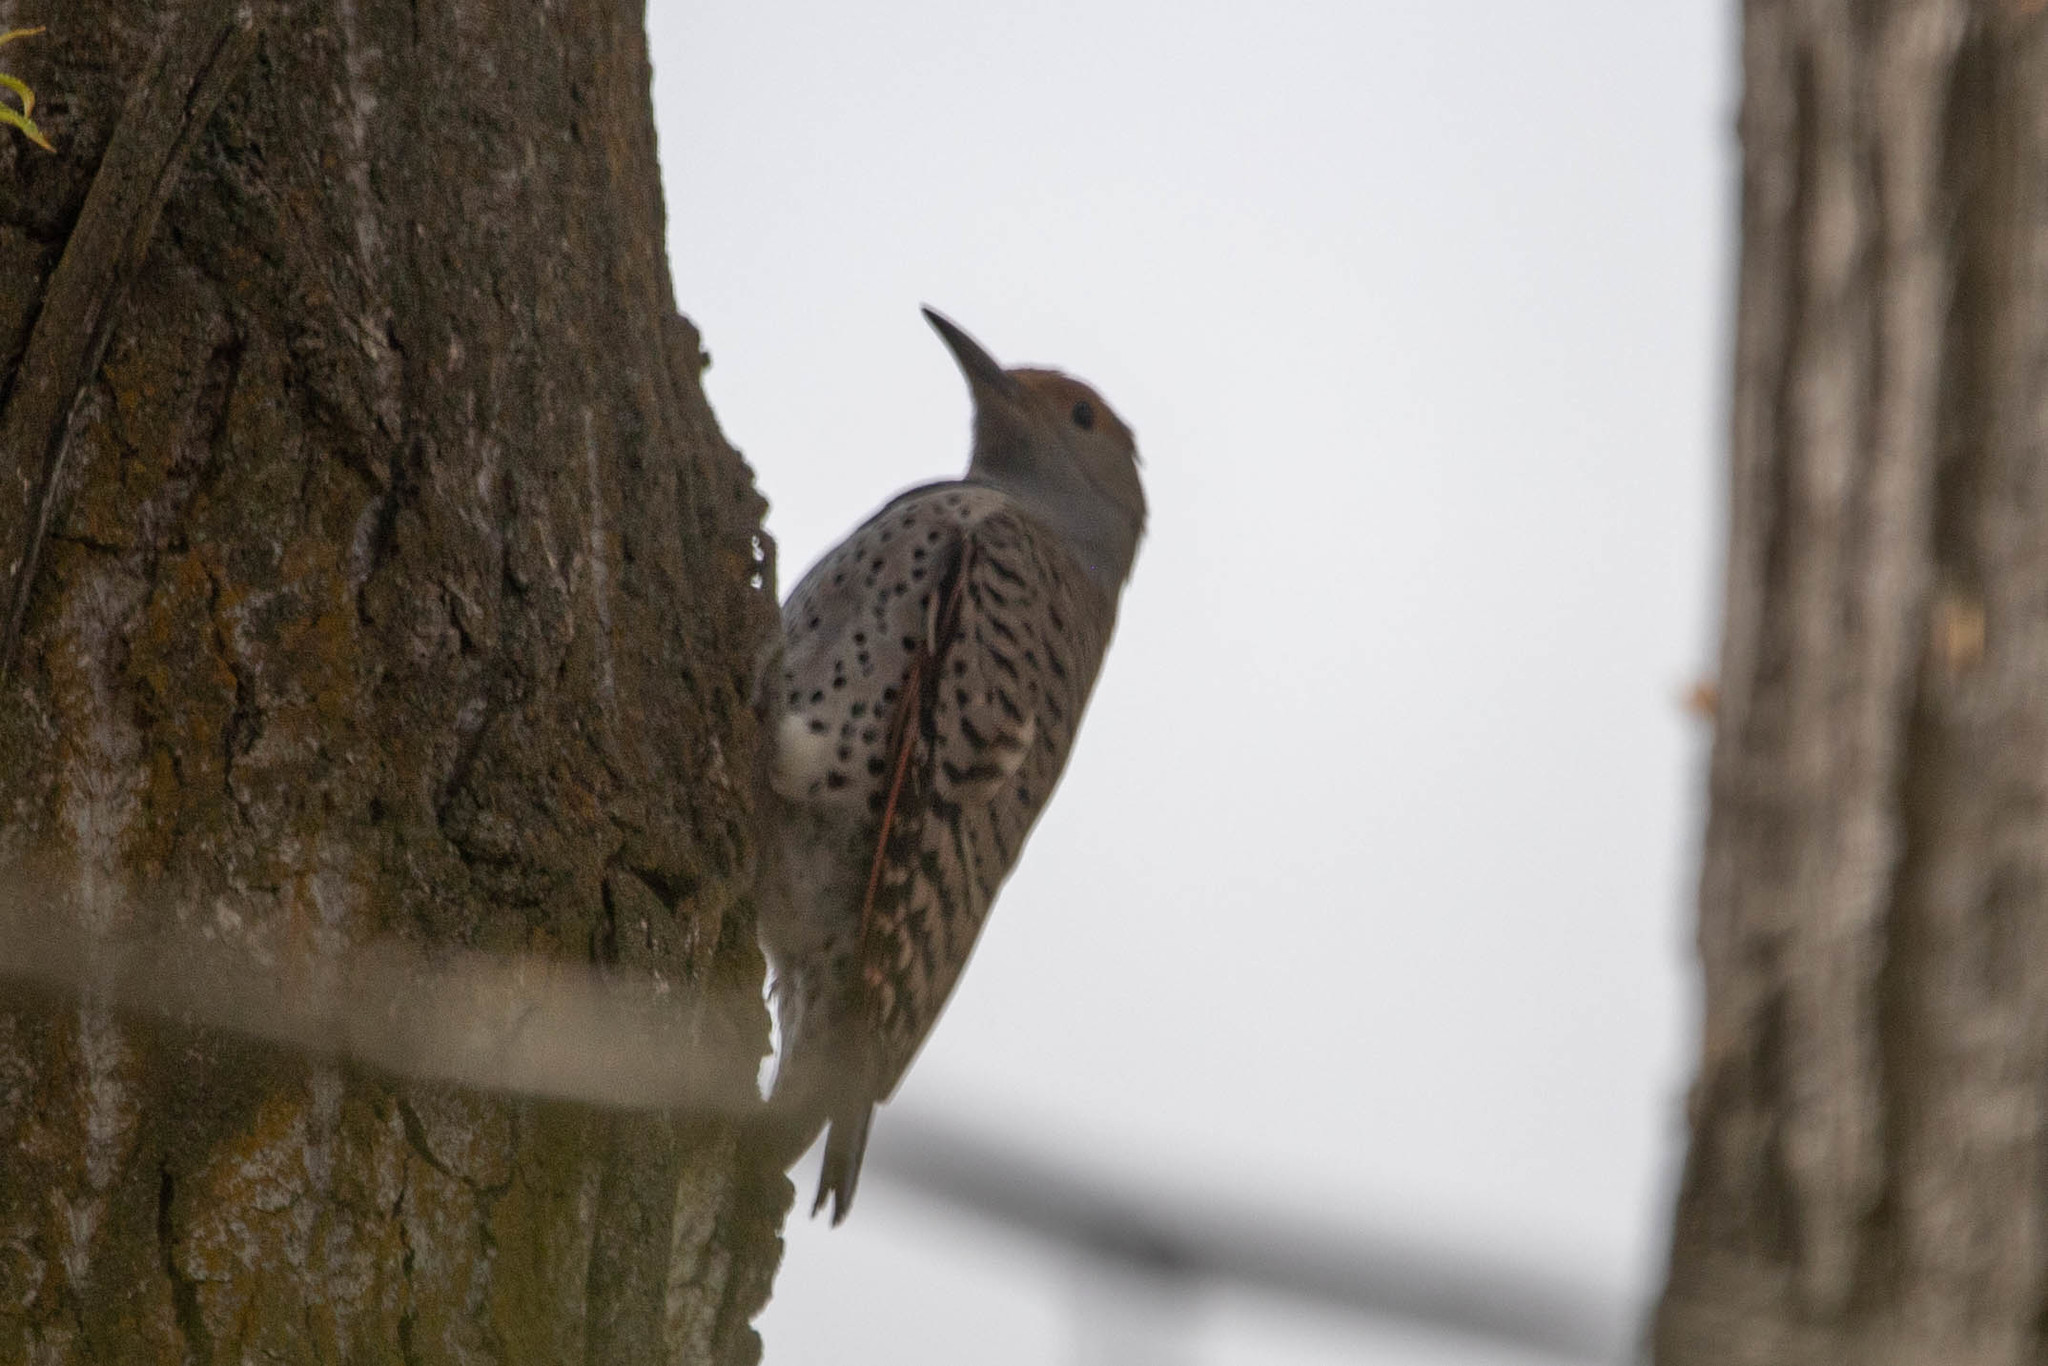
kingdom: Animalia
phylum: Chordata
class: Aves
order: Piciformes
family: Picidae
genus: Colaptes
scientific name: Colaptes auratus
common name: Northern flicker
